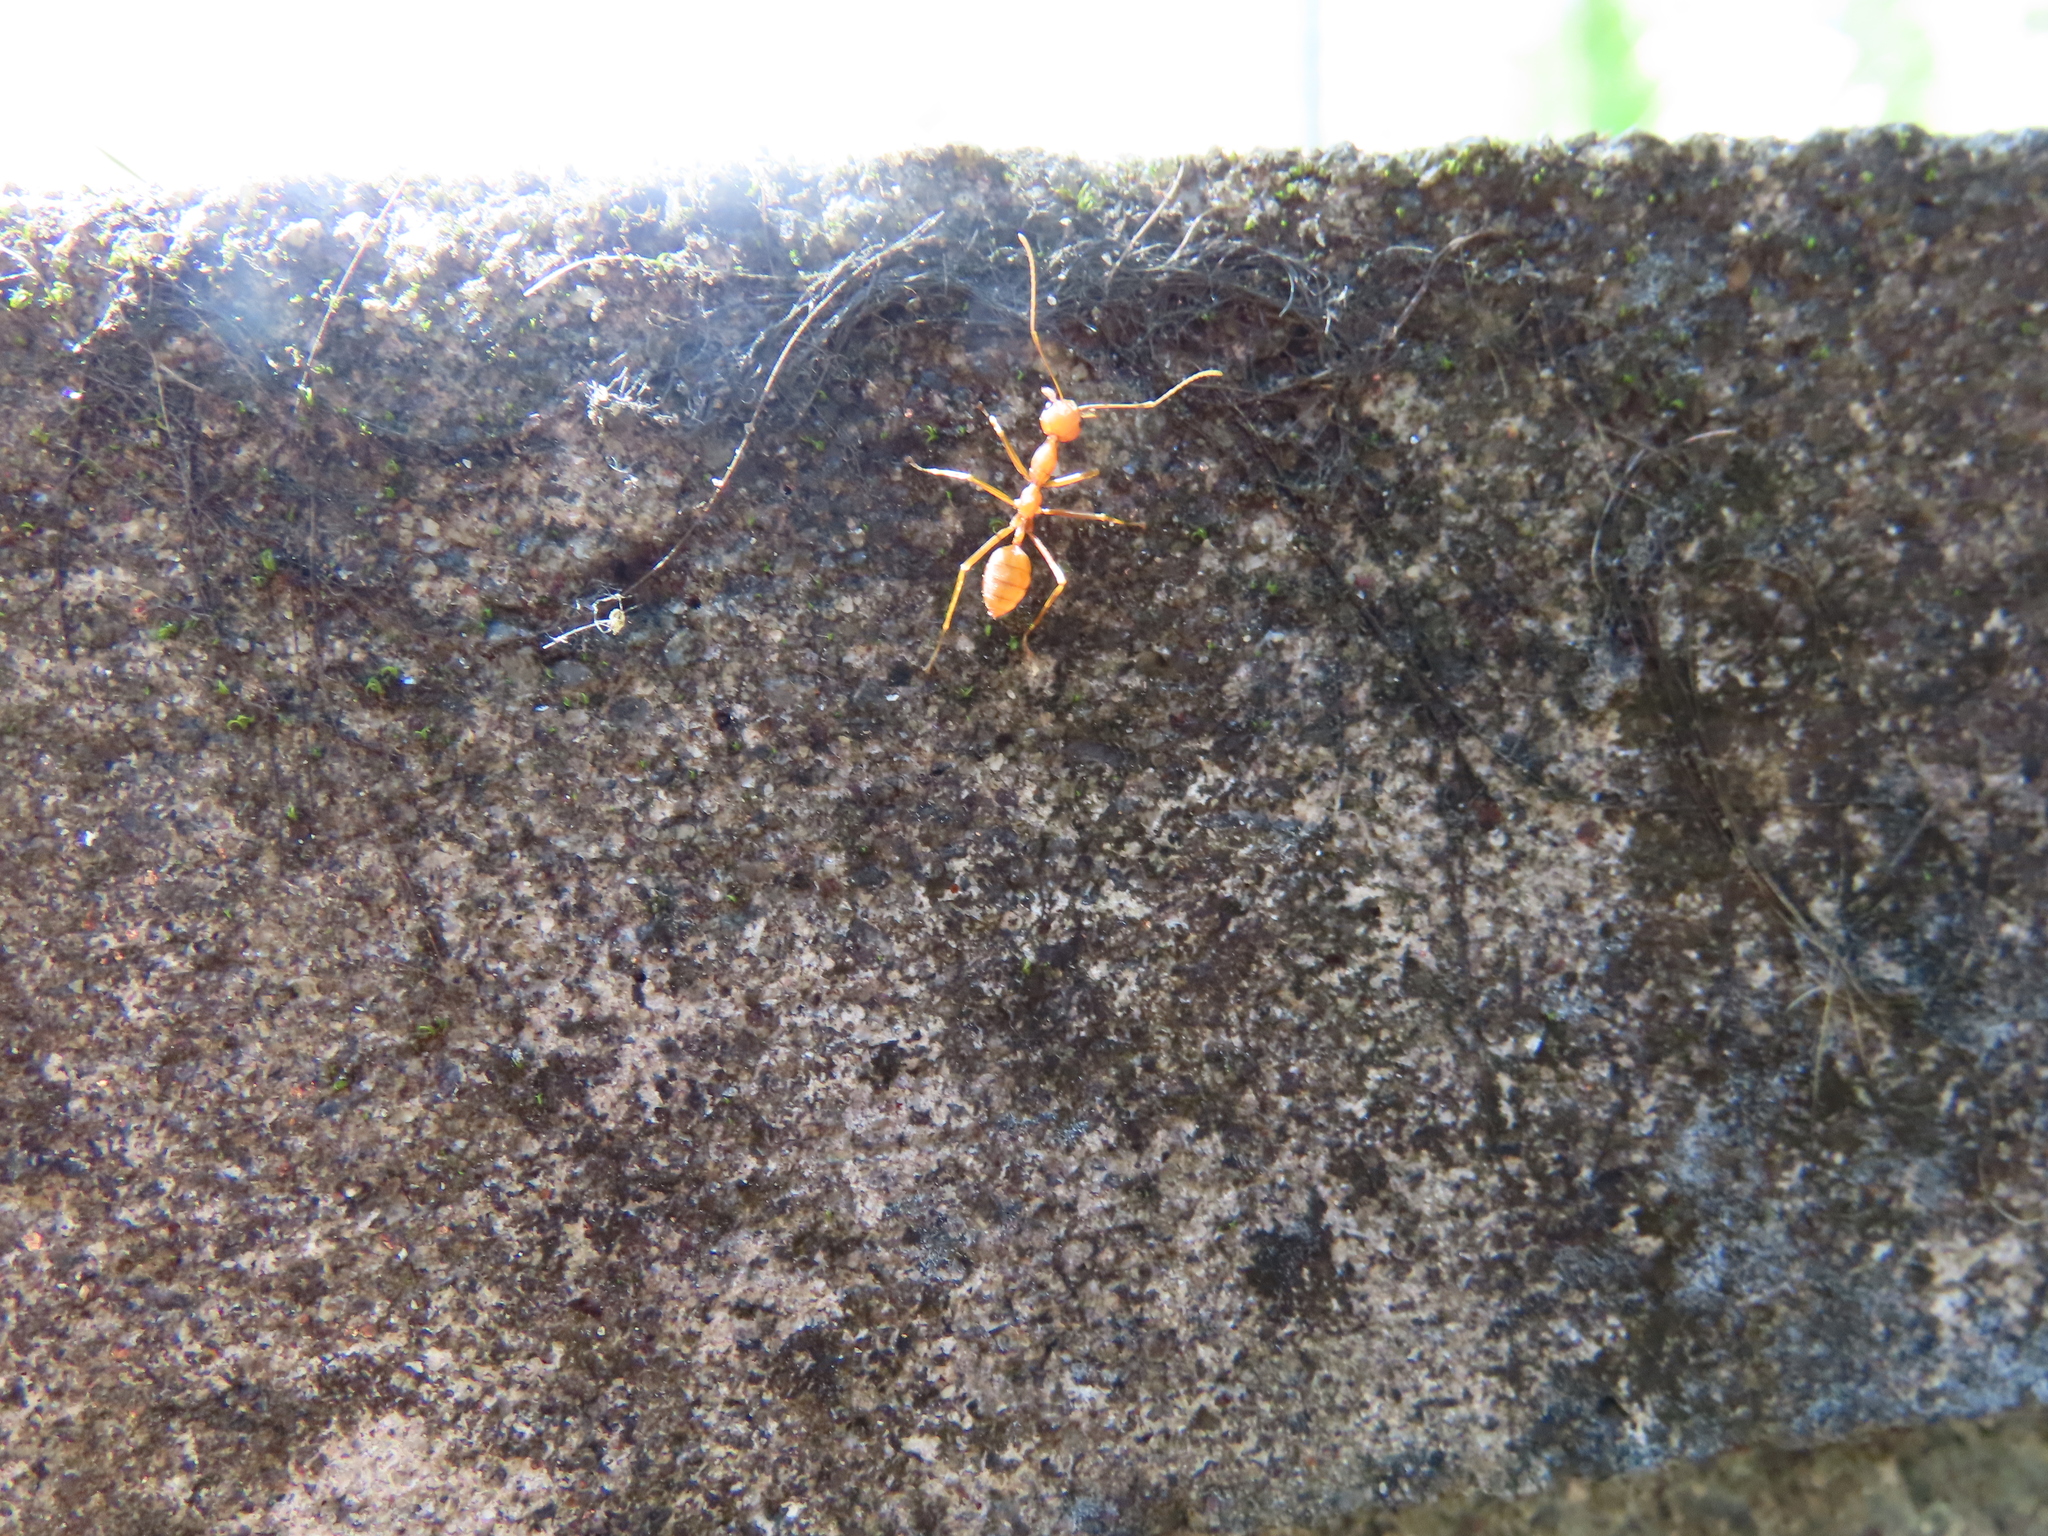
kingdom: Animalia
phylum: Arthropoda
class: Insecta
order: Hymenoptera
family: Formicidae
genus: Oecophylla
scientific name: Oecophylla smaragdina
